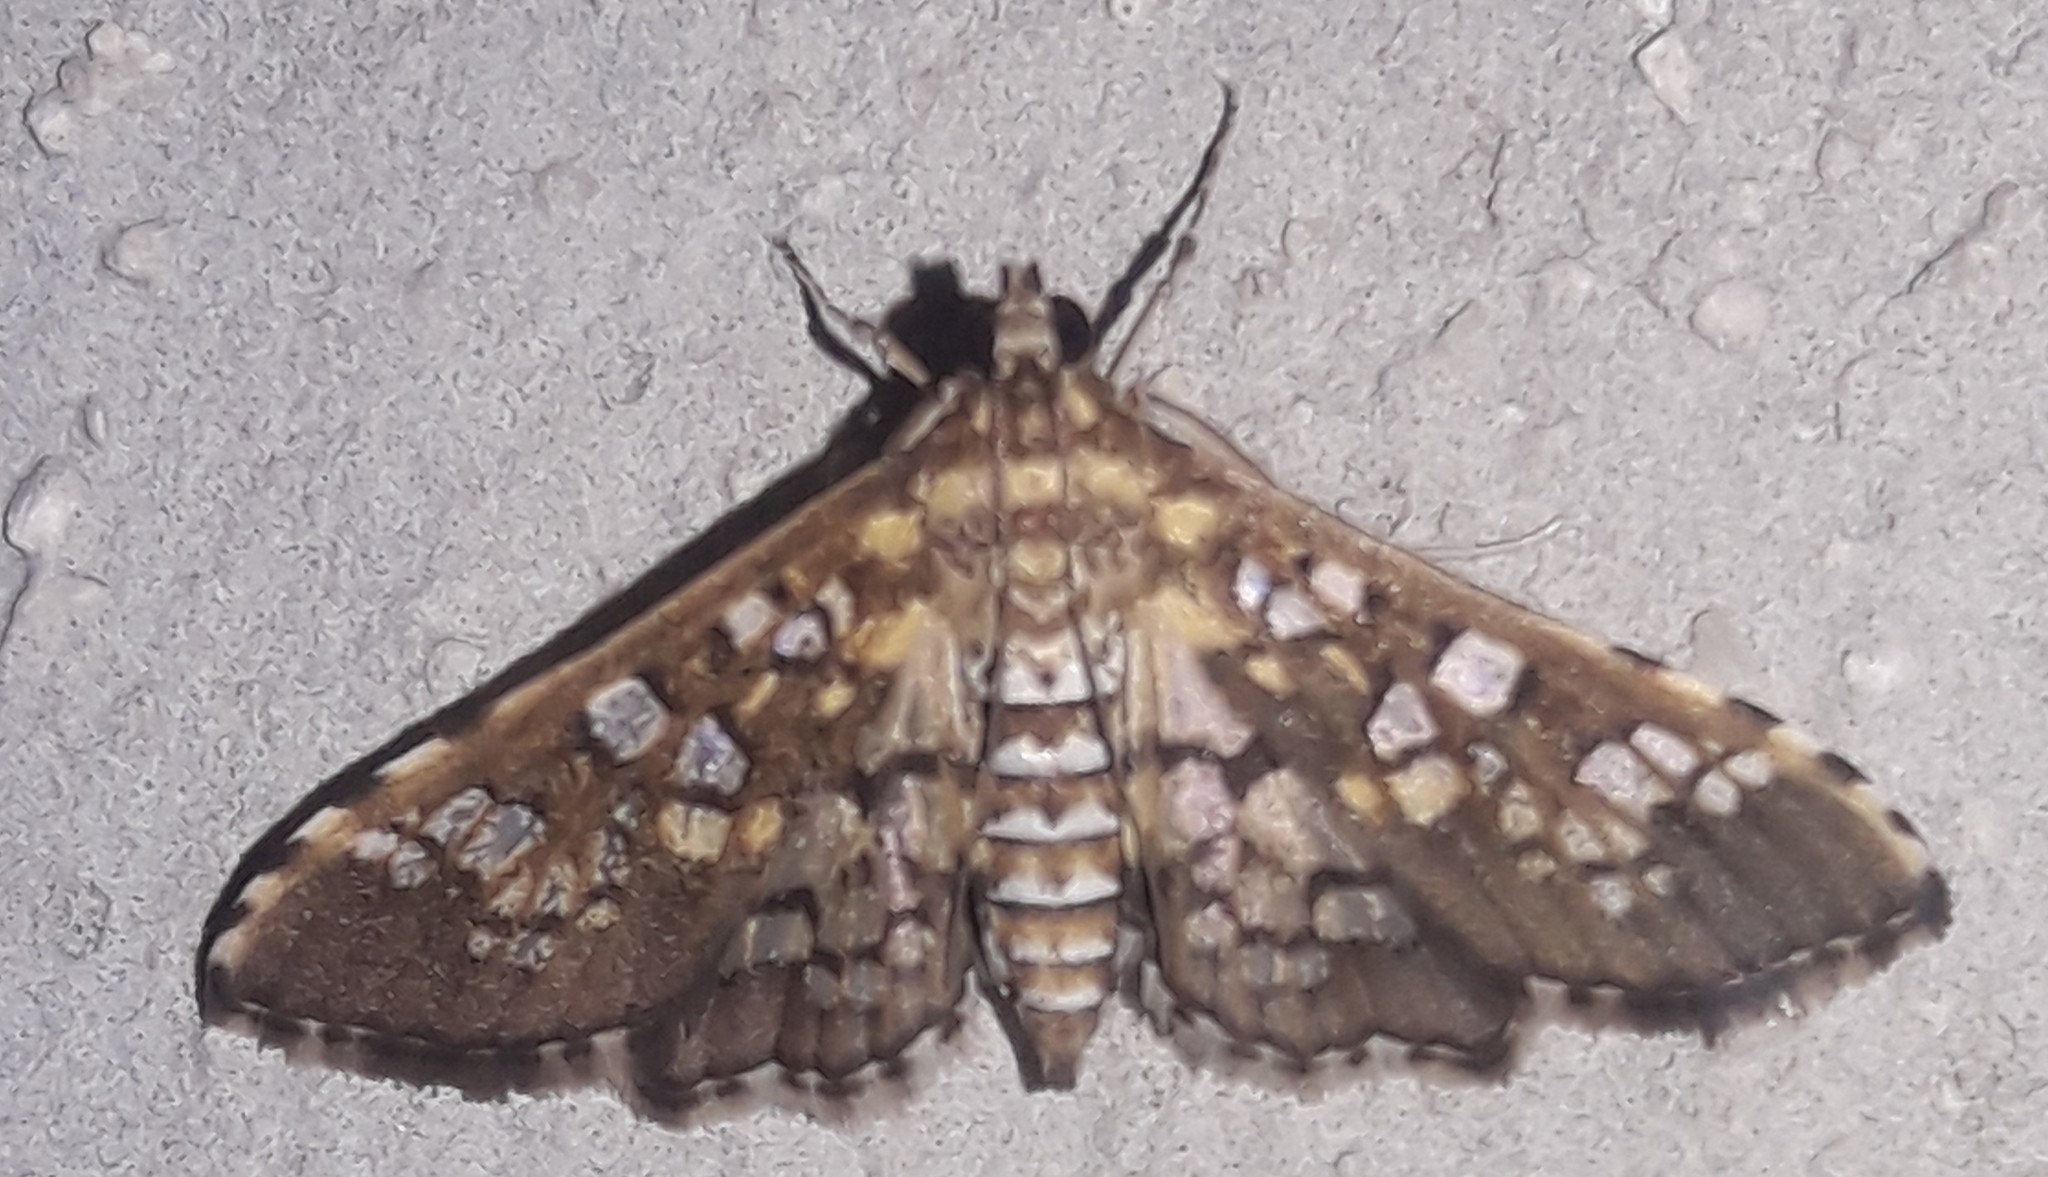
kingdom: Animalia
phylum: Arthropoda
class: Insecta
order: Lepidoptera
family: Crambidae
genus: Samea
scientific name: Samea ecclesialis
